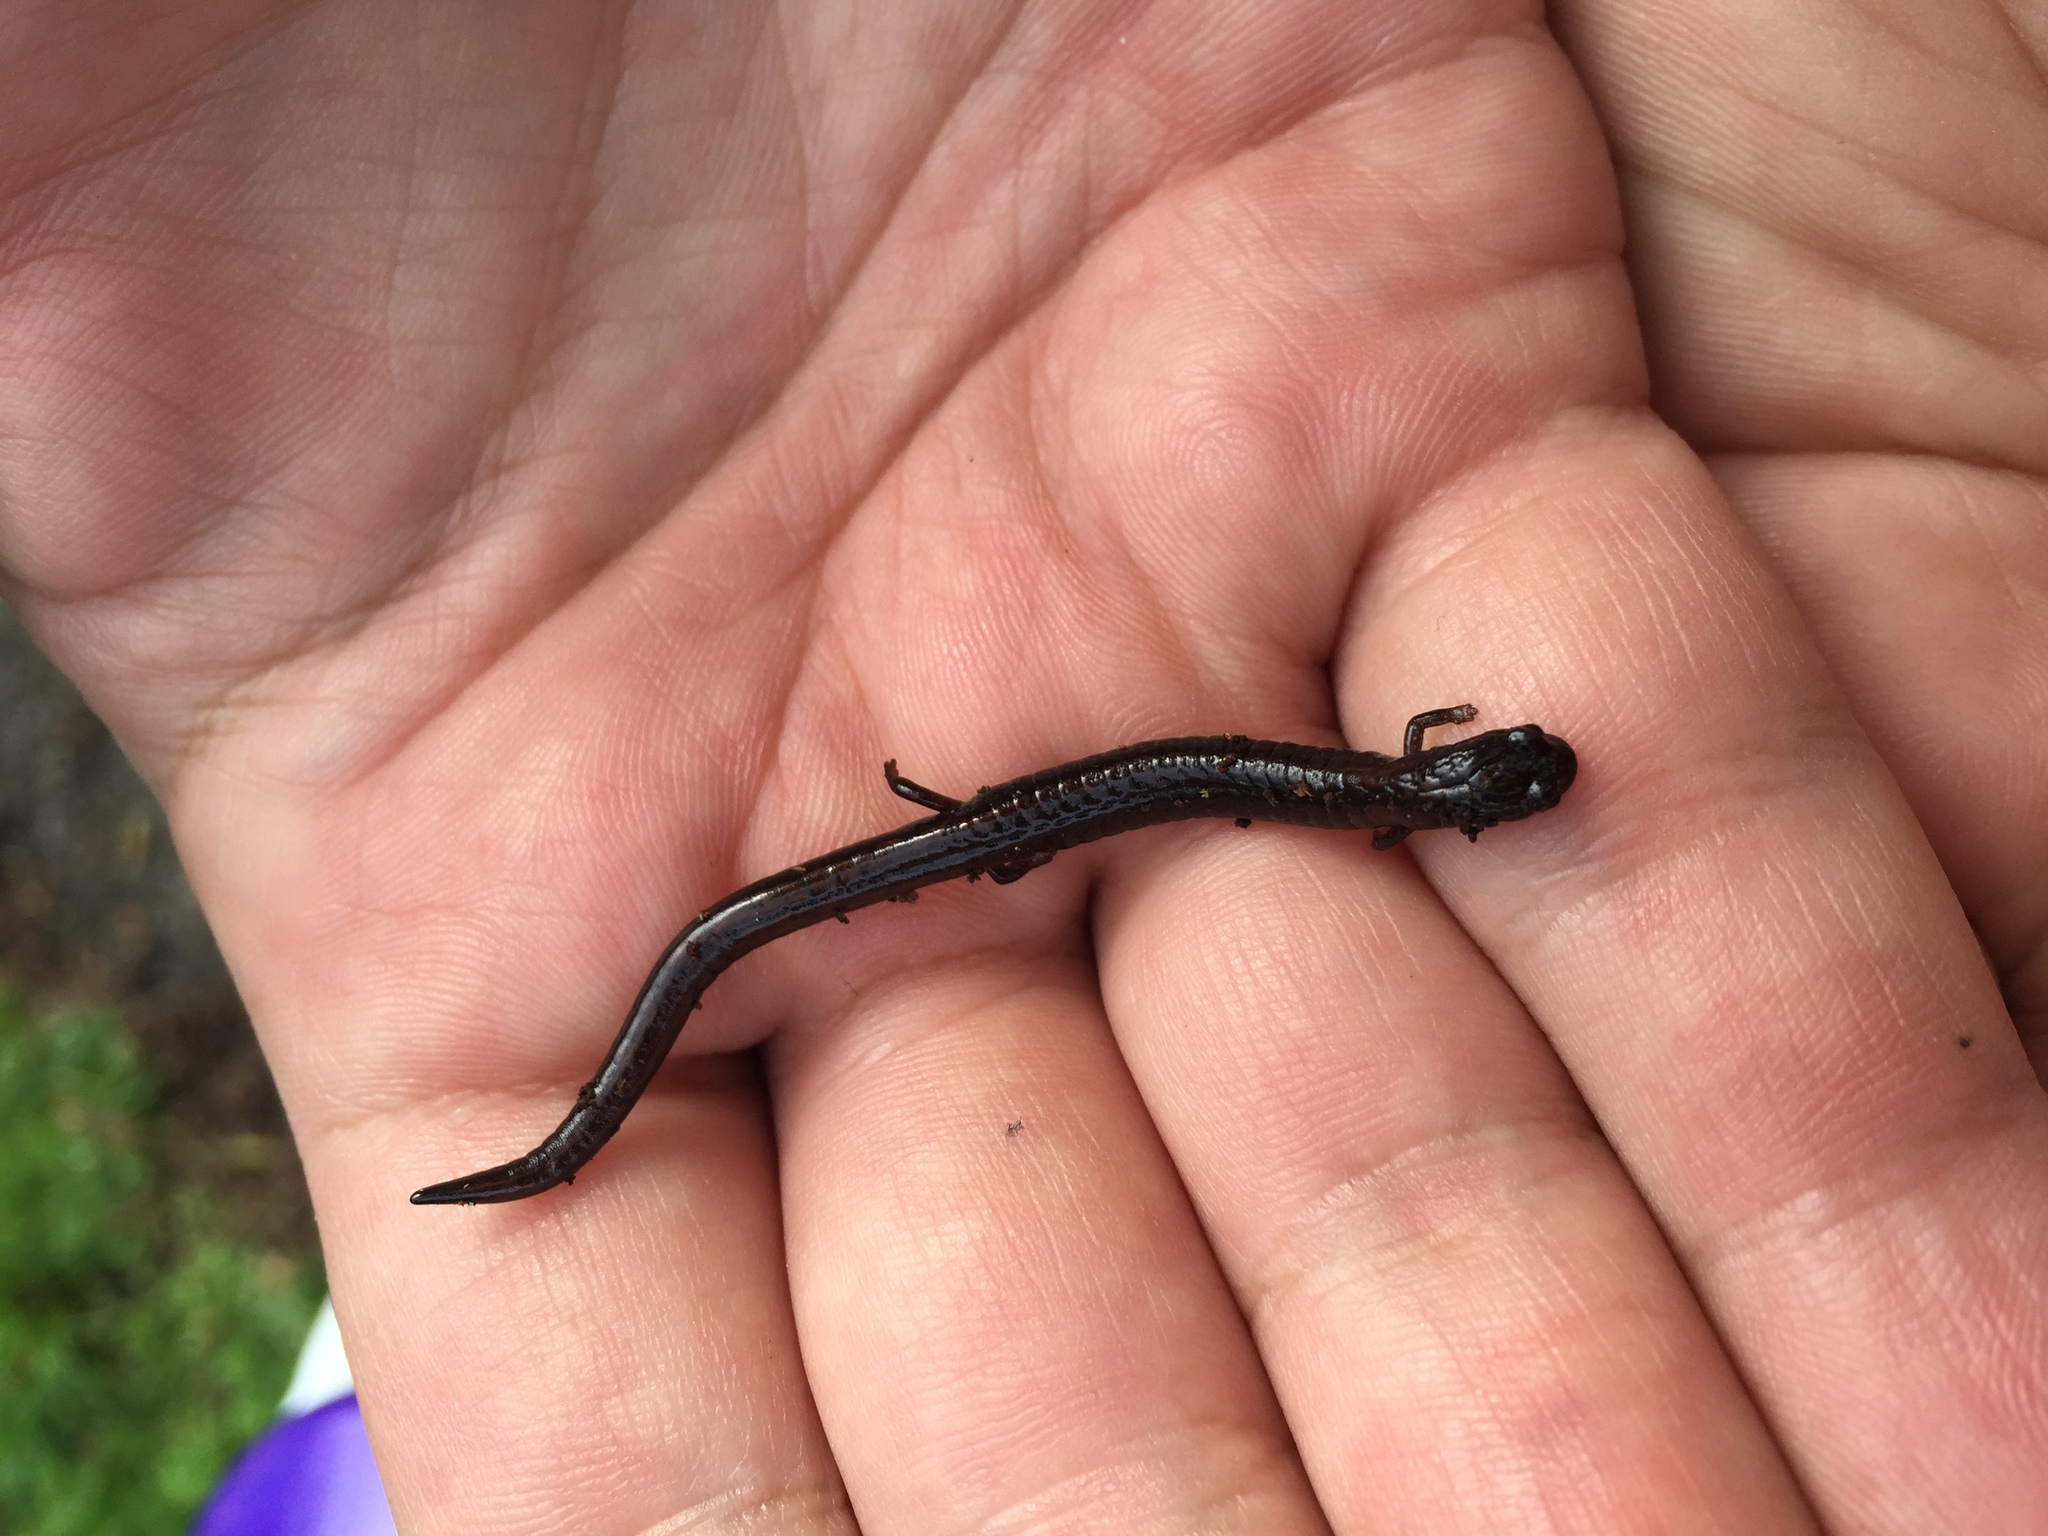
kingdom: Animalia
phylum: Chordata
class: Amphibia
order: Caudata
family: Plethodontidae
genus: Batrachoseps
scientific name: Batrachoseps attenuatus
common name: California slender salamander
